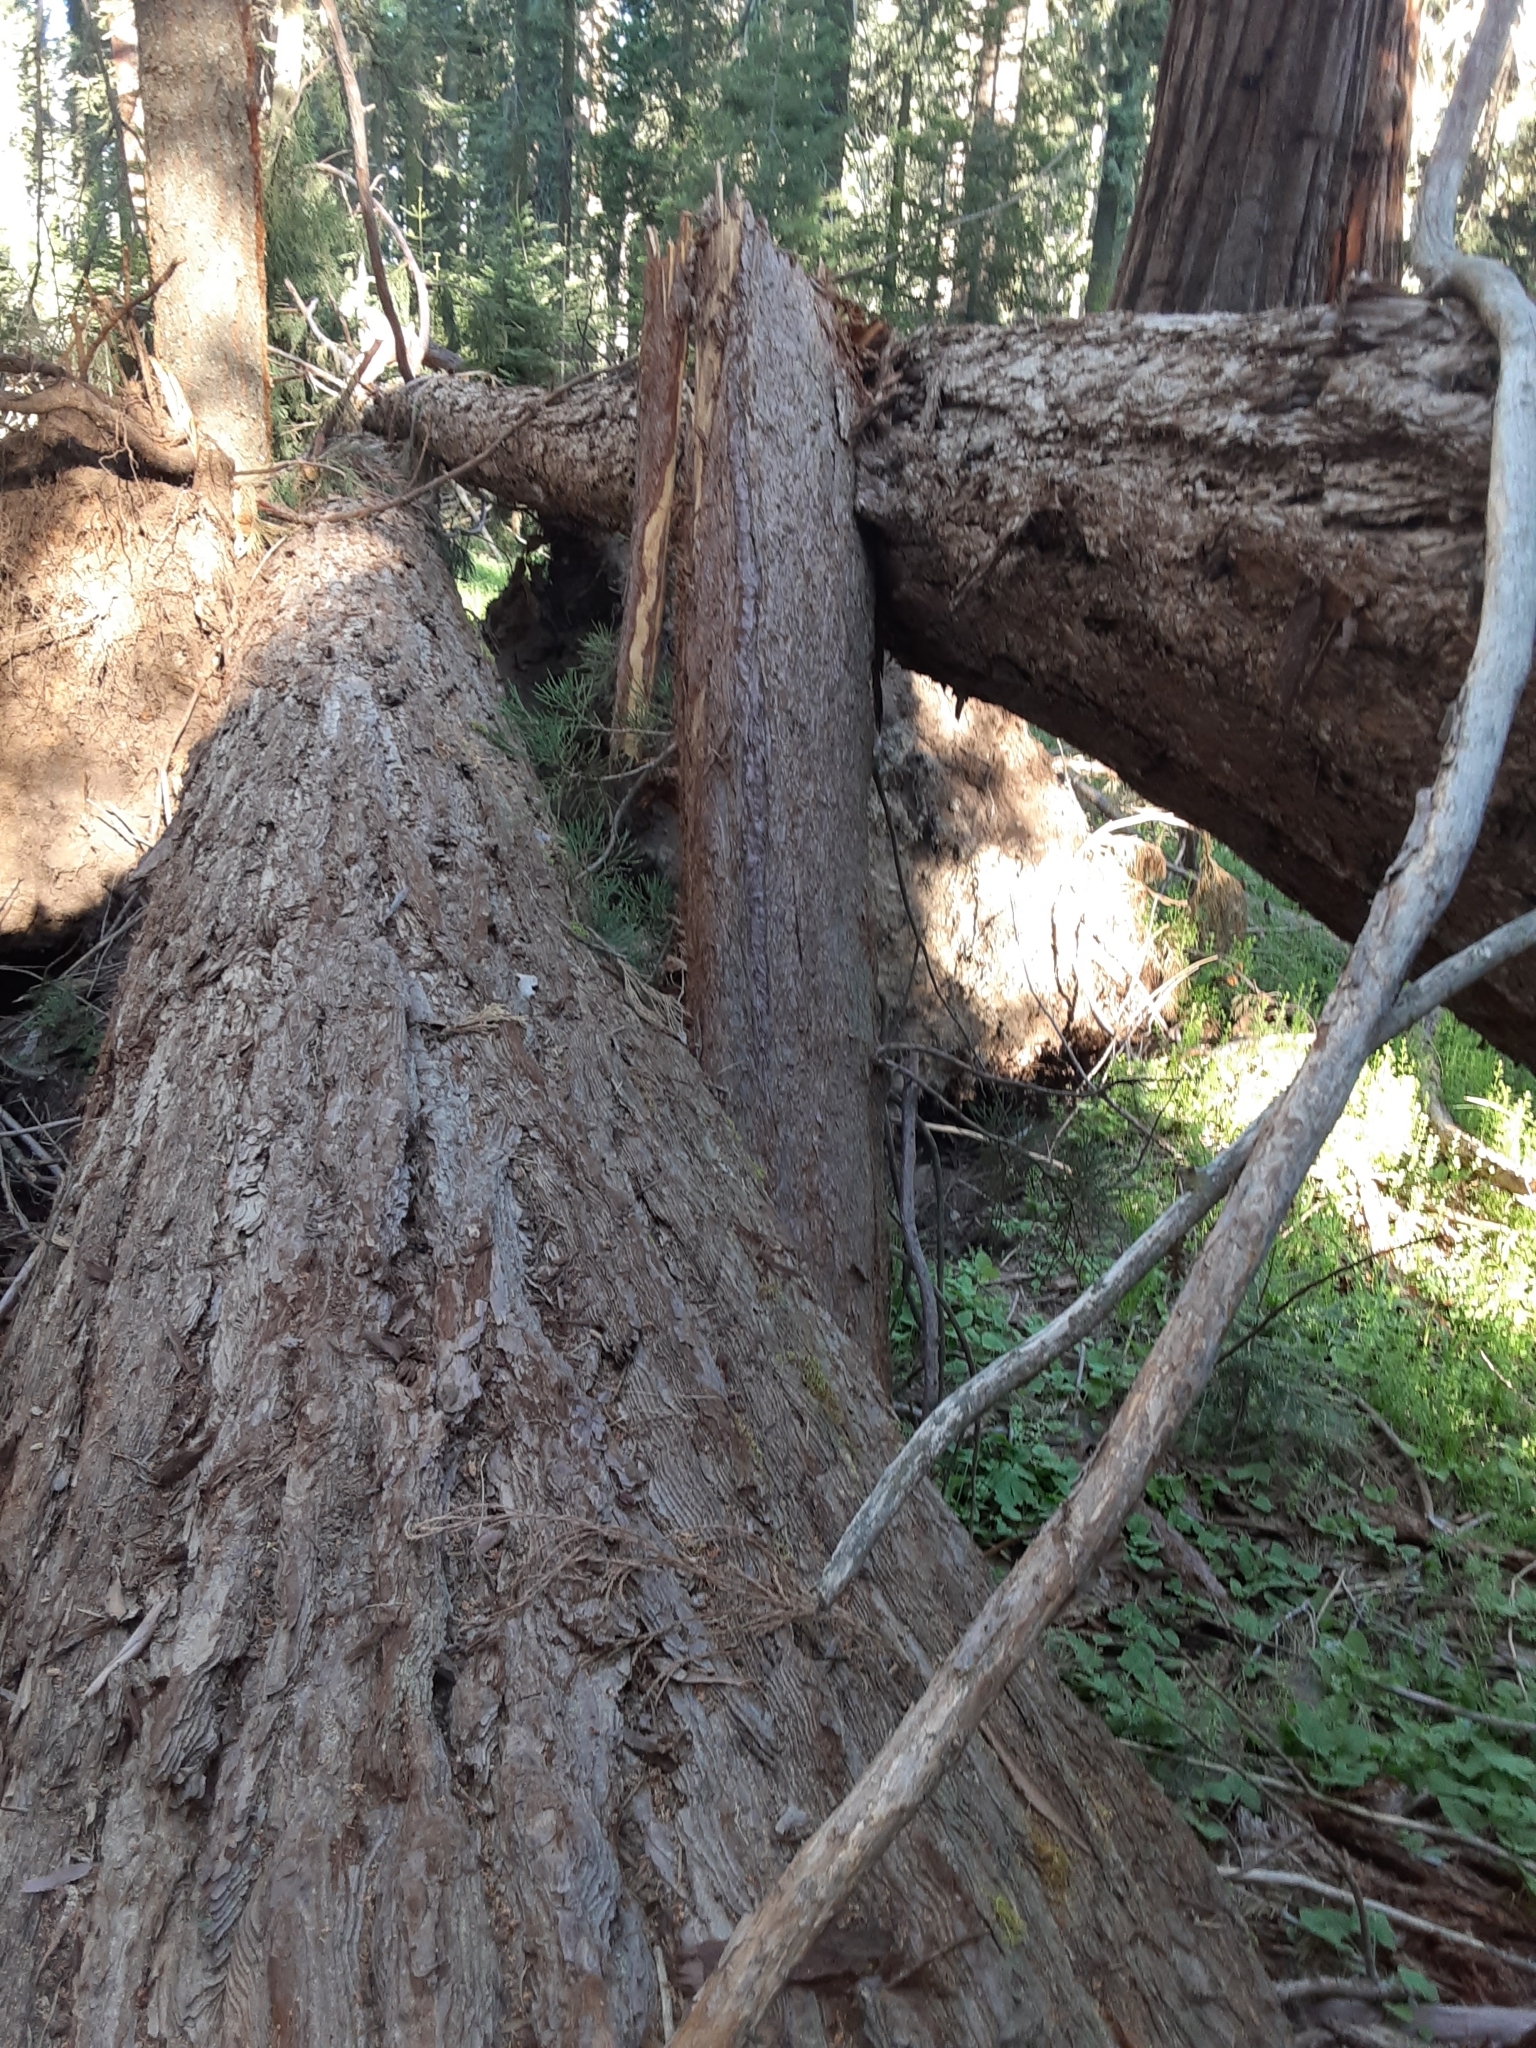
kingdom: Plantae
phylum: Tracheophyta
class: Pinopsida
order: Pinales
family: Cupressaceae
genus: Sequoiadendron
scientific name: Sequoiadendron giganteum
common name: Wellingtonia
